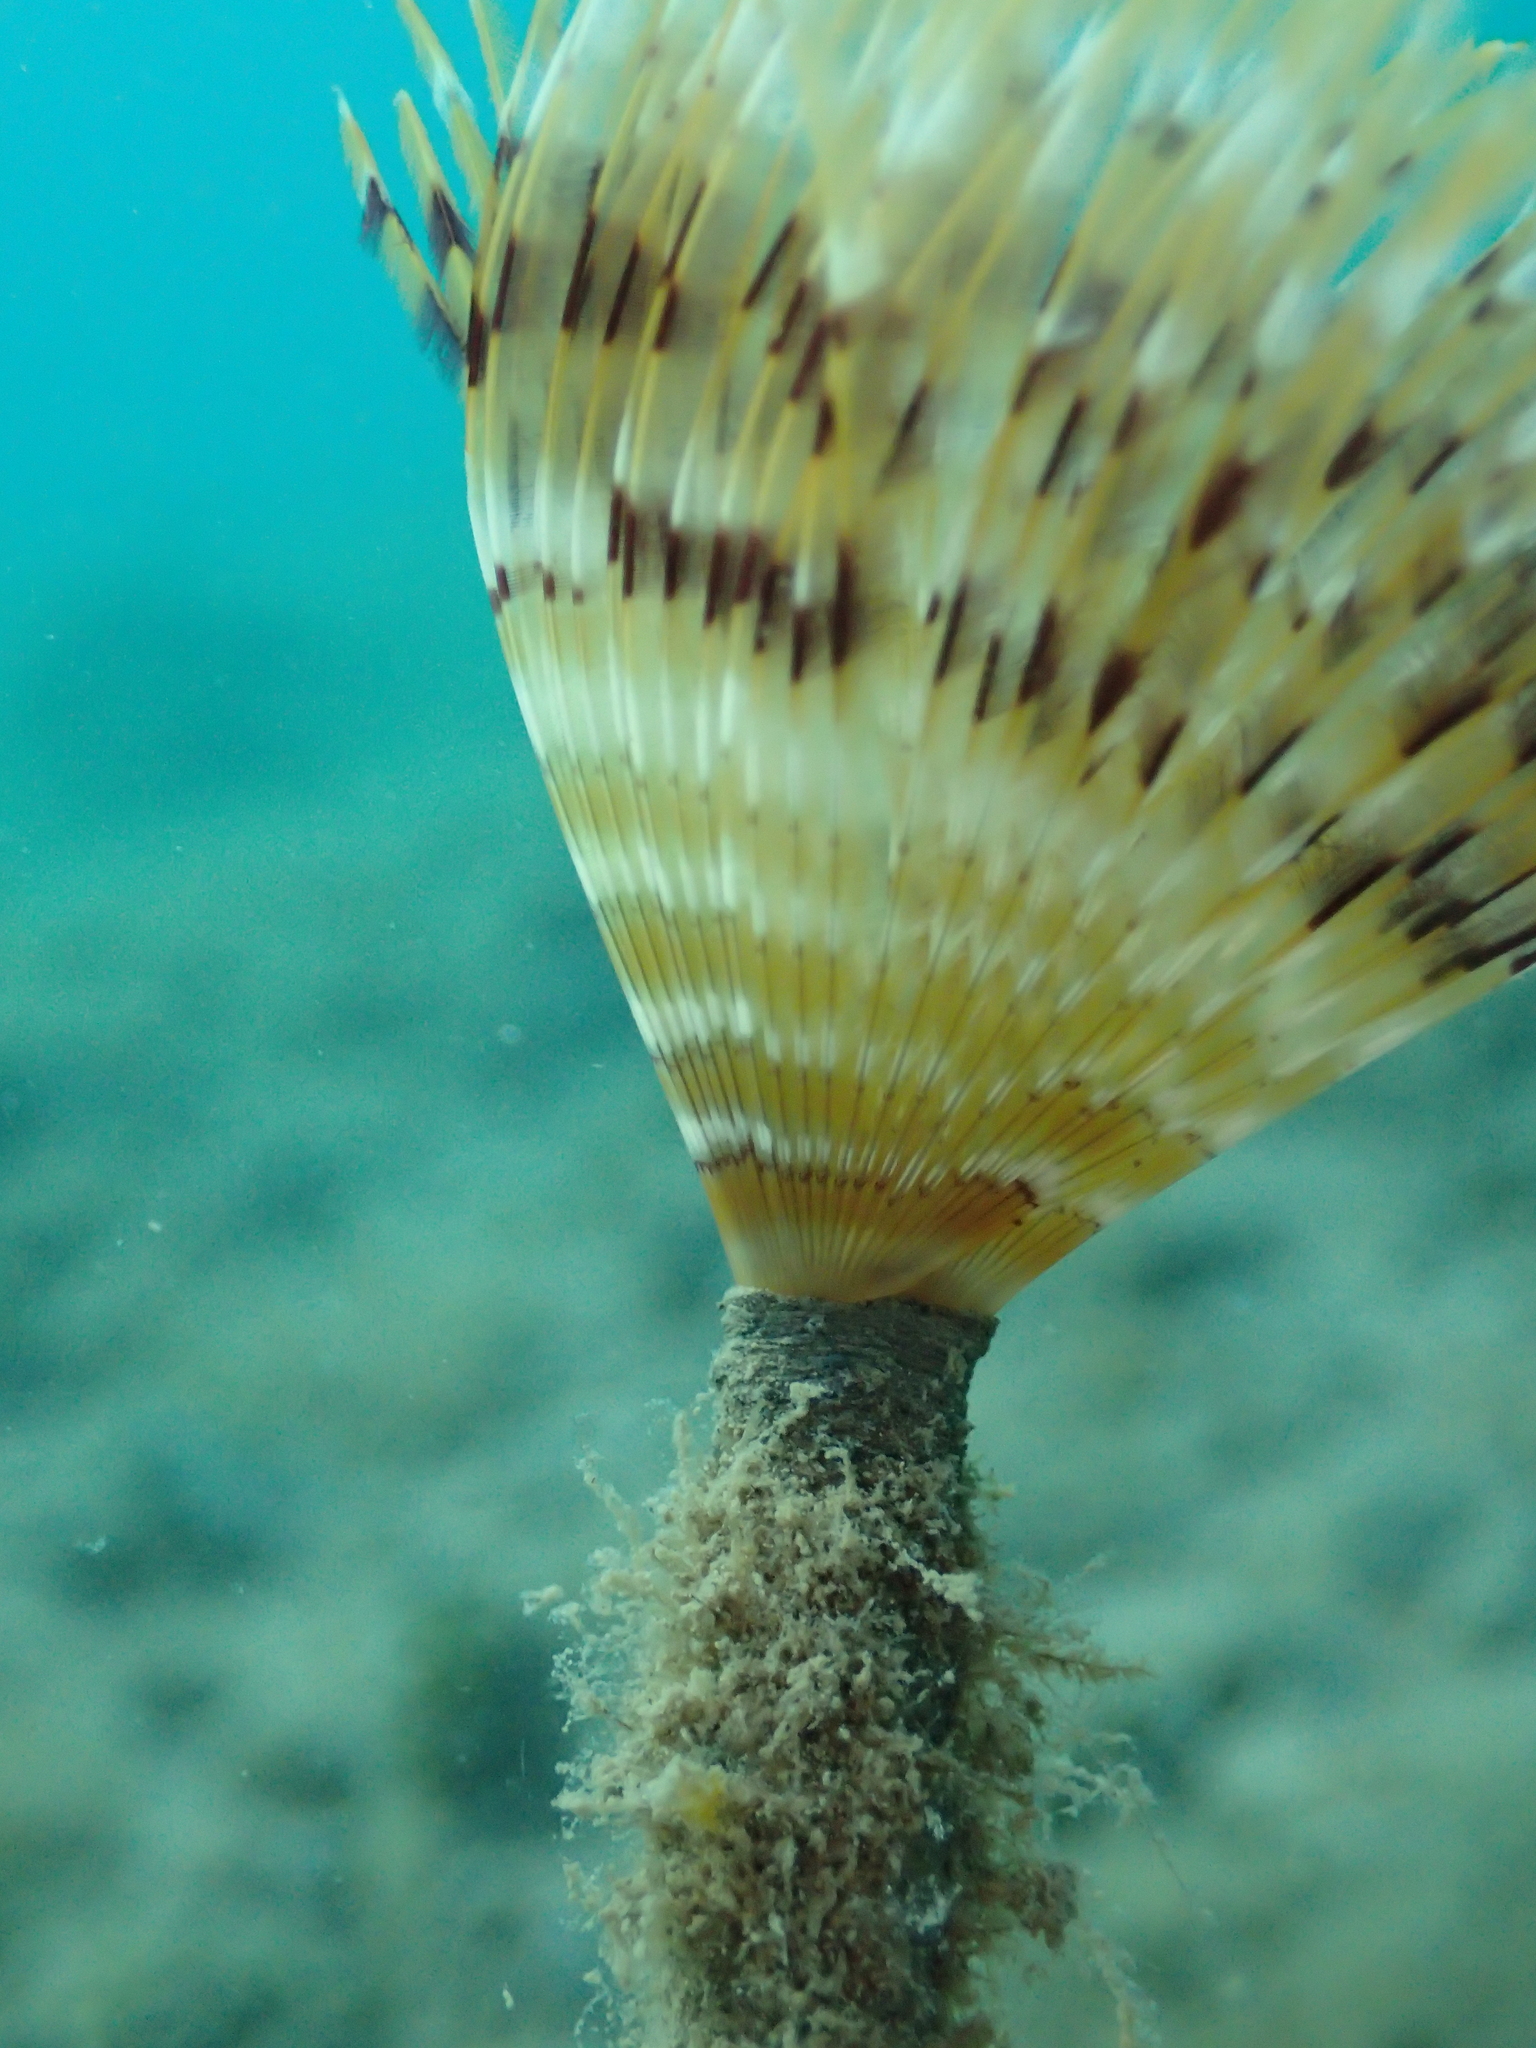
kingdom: Animalia
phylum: Annelida
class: Polychaeta
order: Sabellida
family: Sabellidae
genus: Sabella
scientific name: Sabella spallanzanii
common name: Feather duster worm
